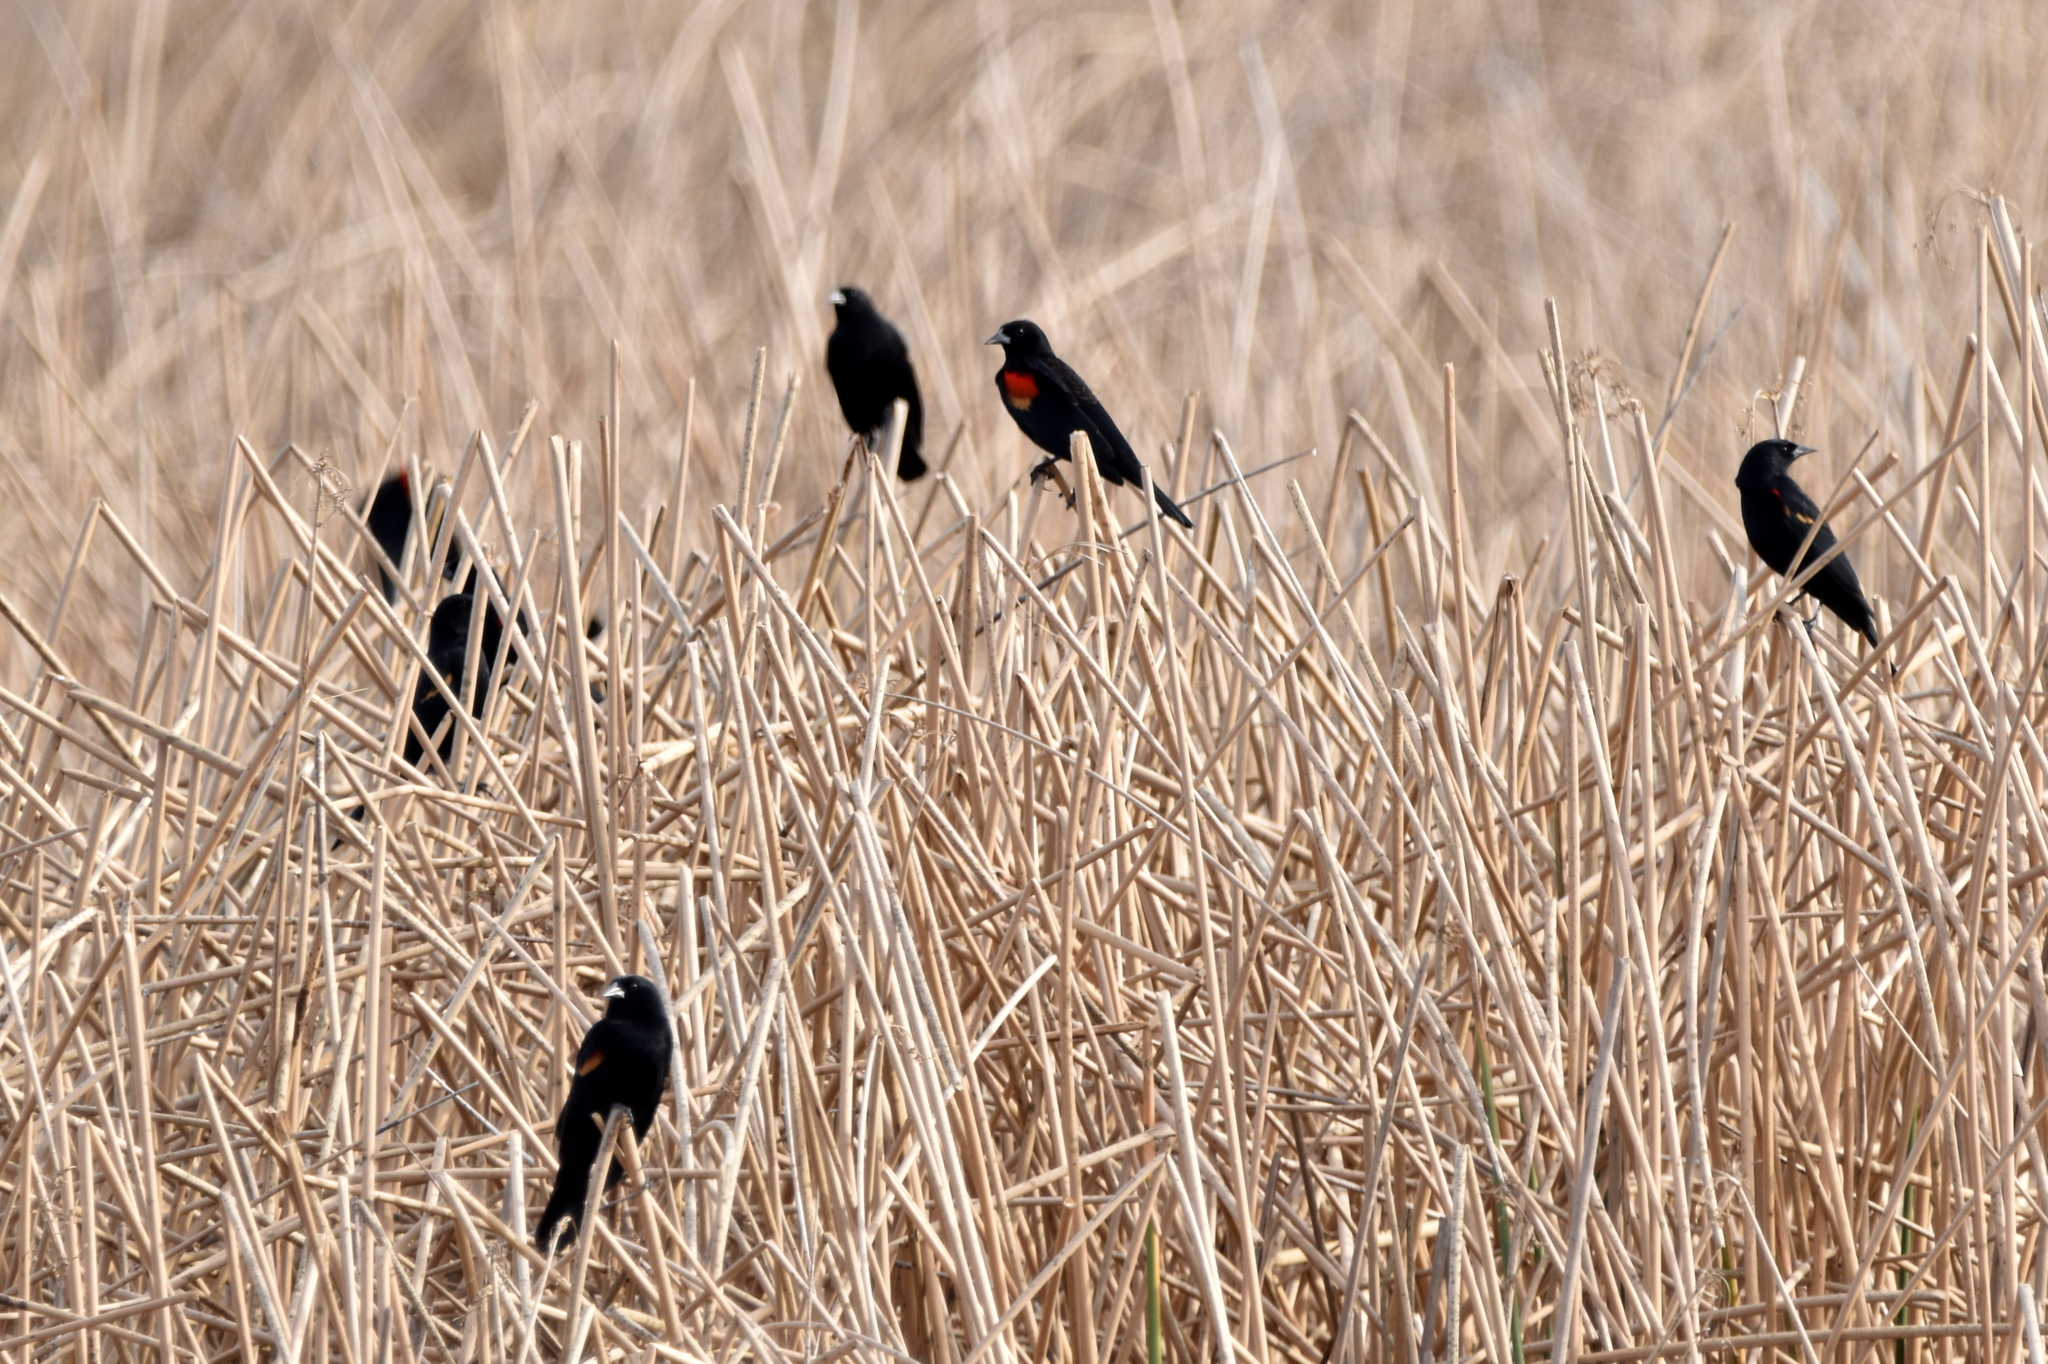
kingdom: Animalia
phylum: Chordata
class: Aves
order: Passeriformes
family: Icteridae
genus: Agelaius
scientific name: Agelaius phoeniceus
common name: Red-winged blackbird
